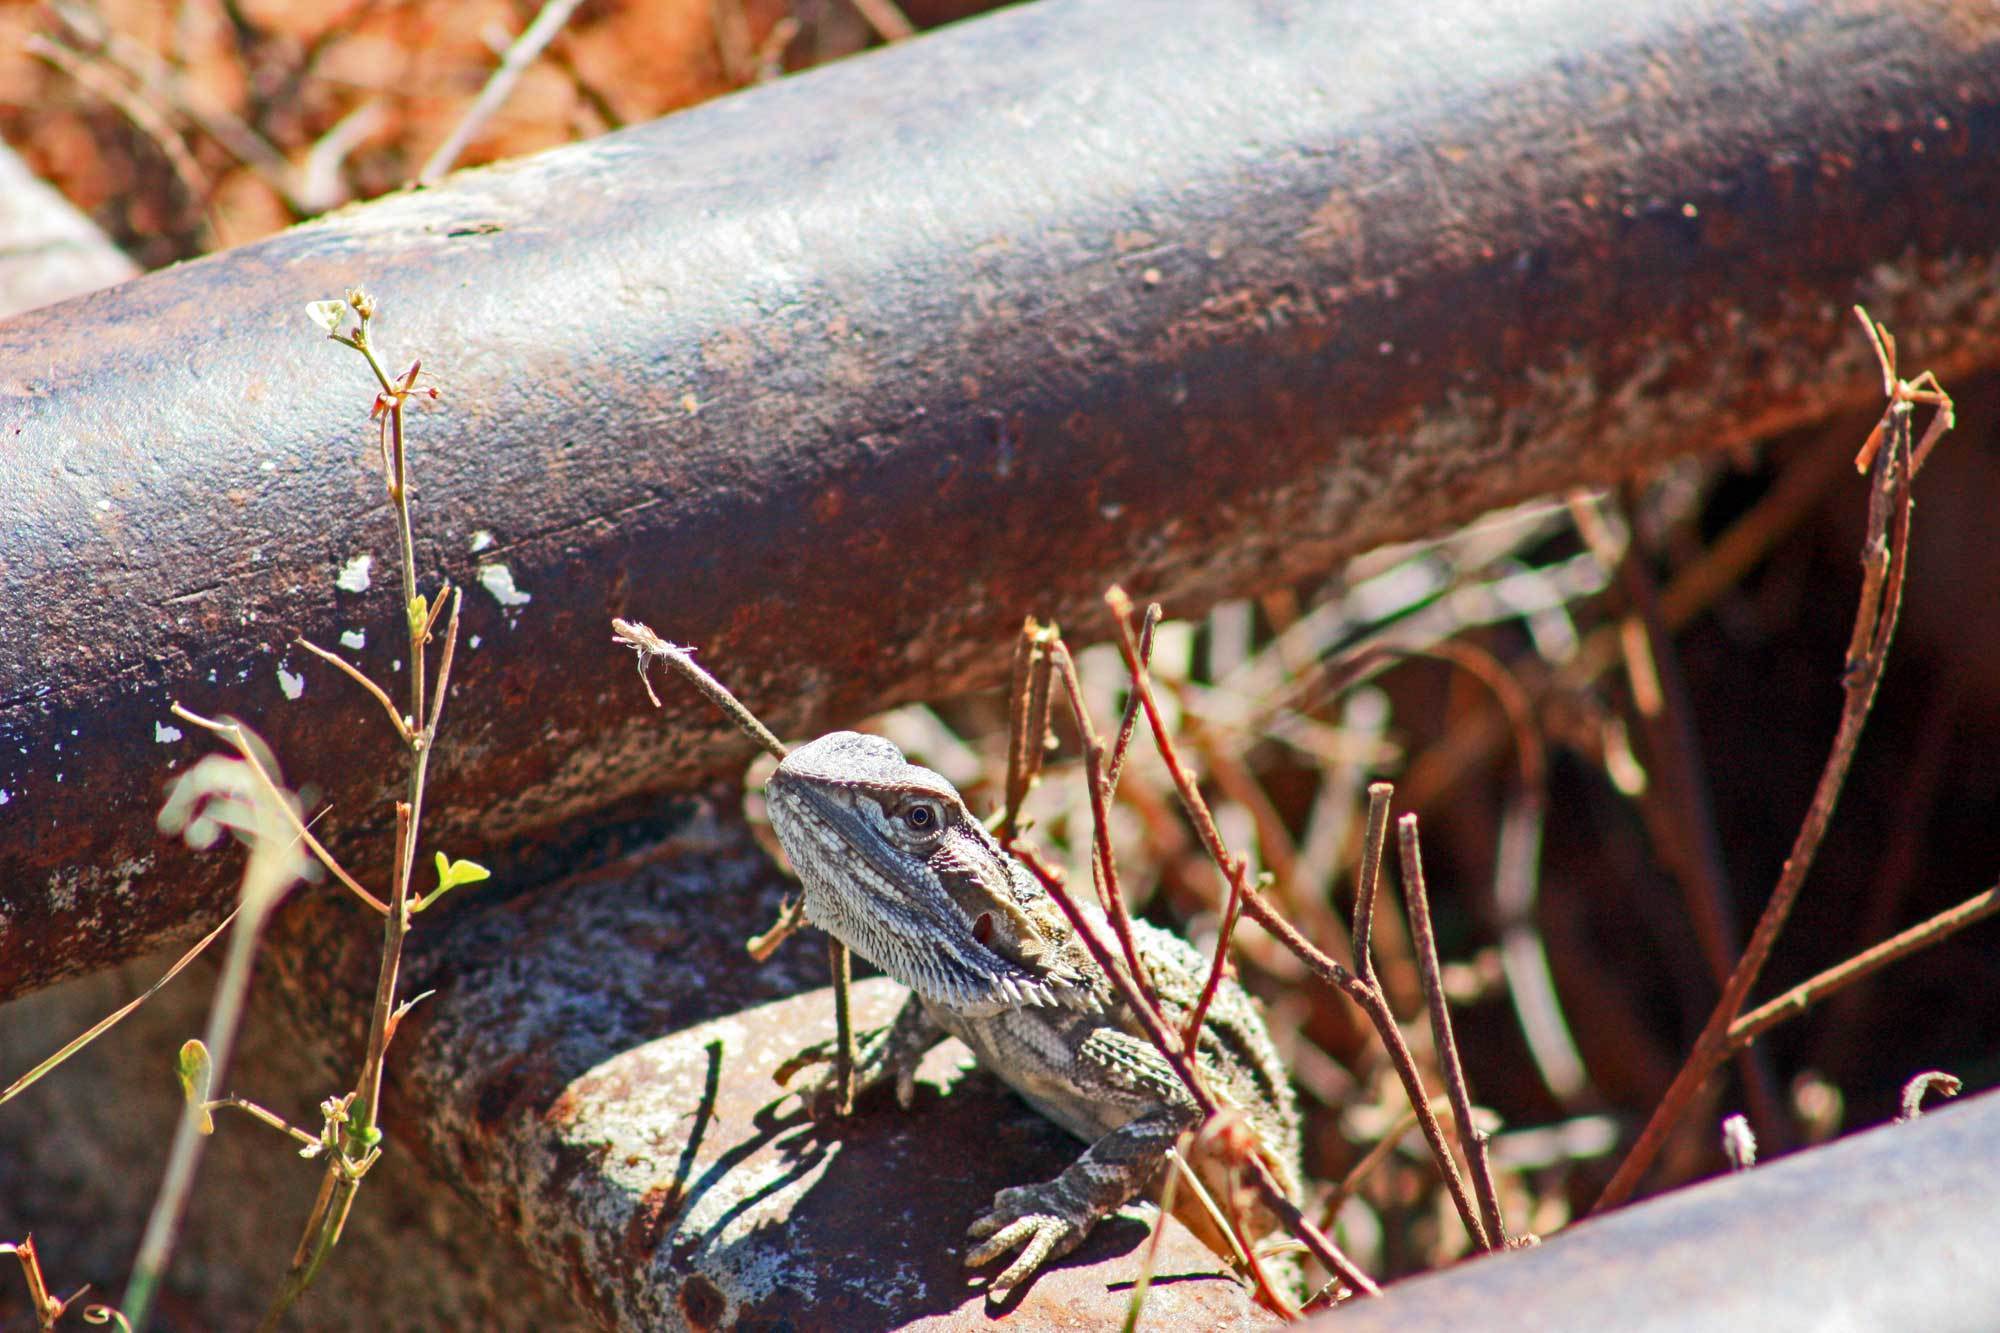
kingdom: Animalia
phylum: Chordata
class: Squamata
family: Agamidae
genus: Pogona
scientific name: Pogona vitticeps
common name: Central bearded dragon
